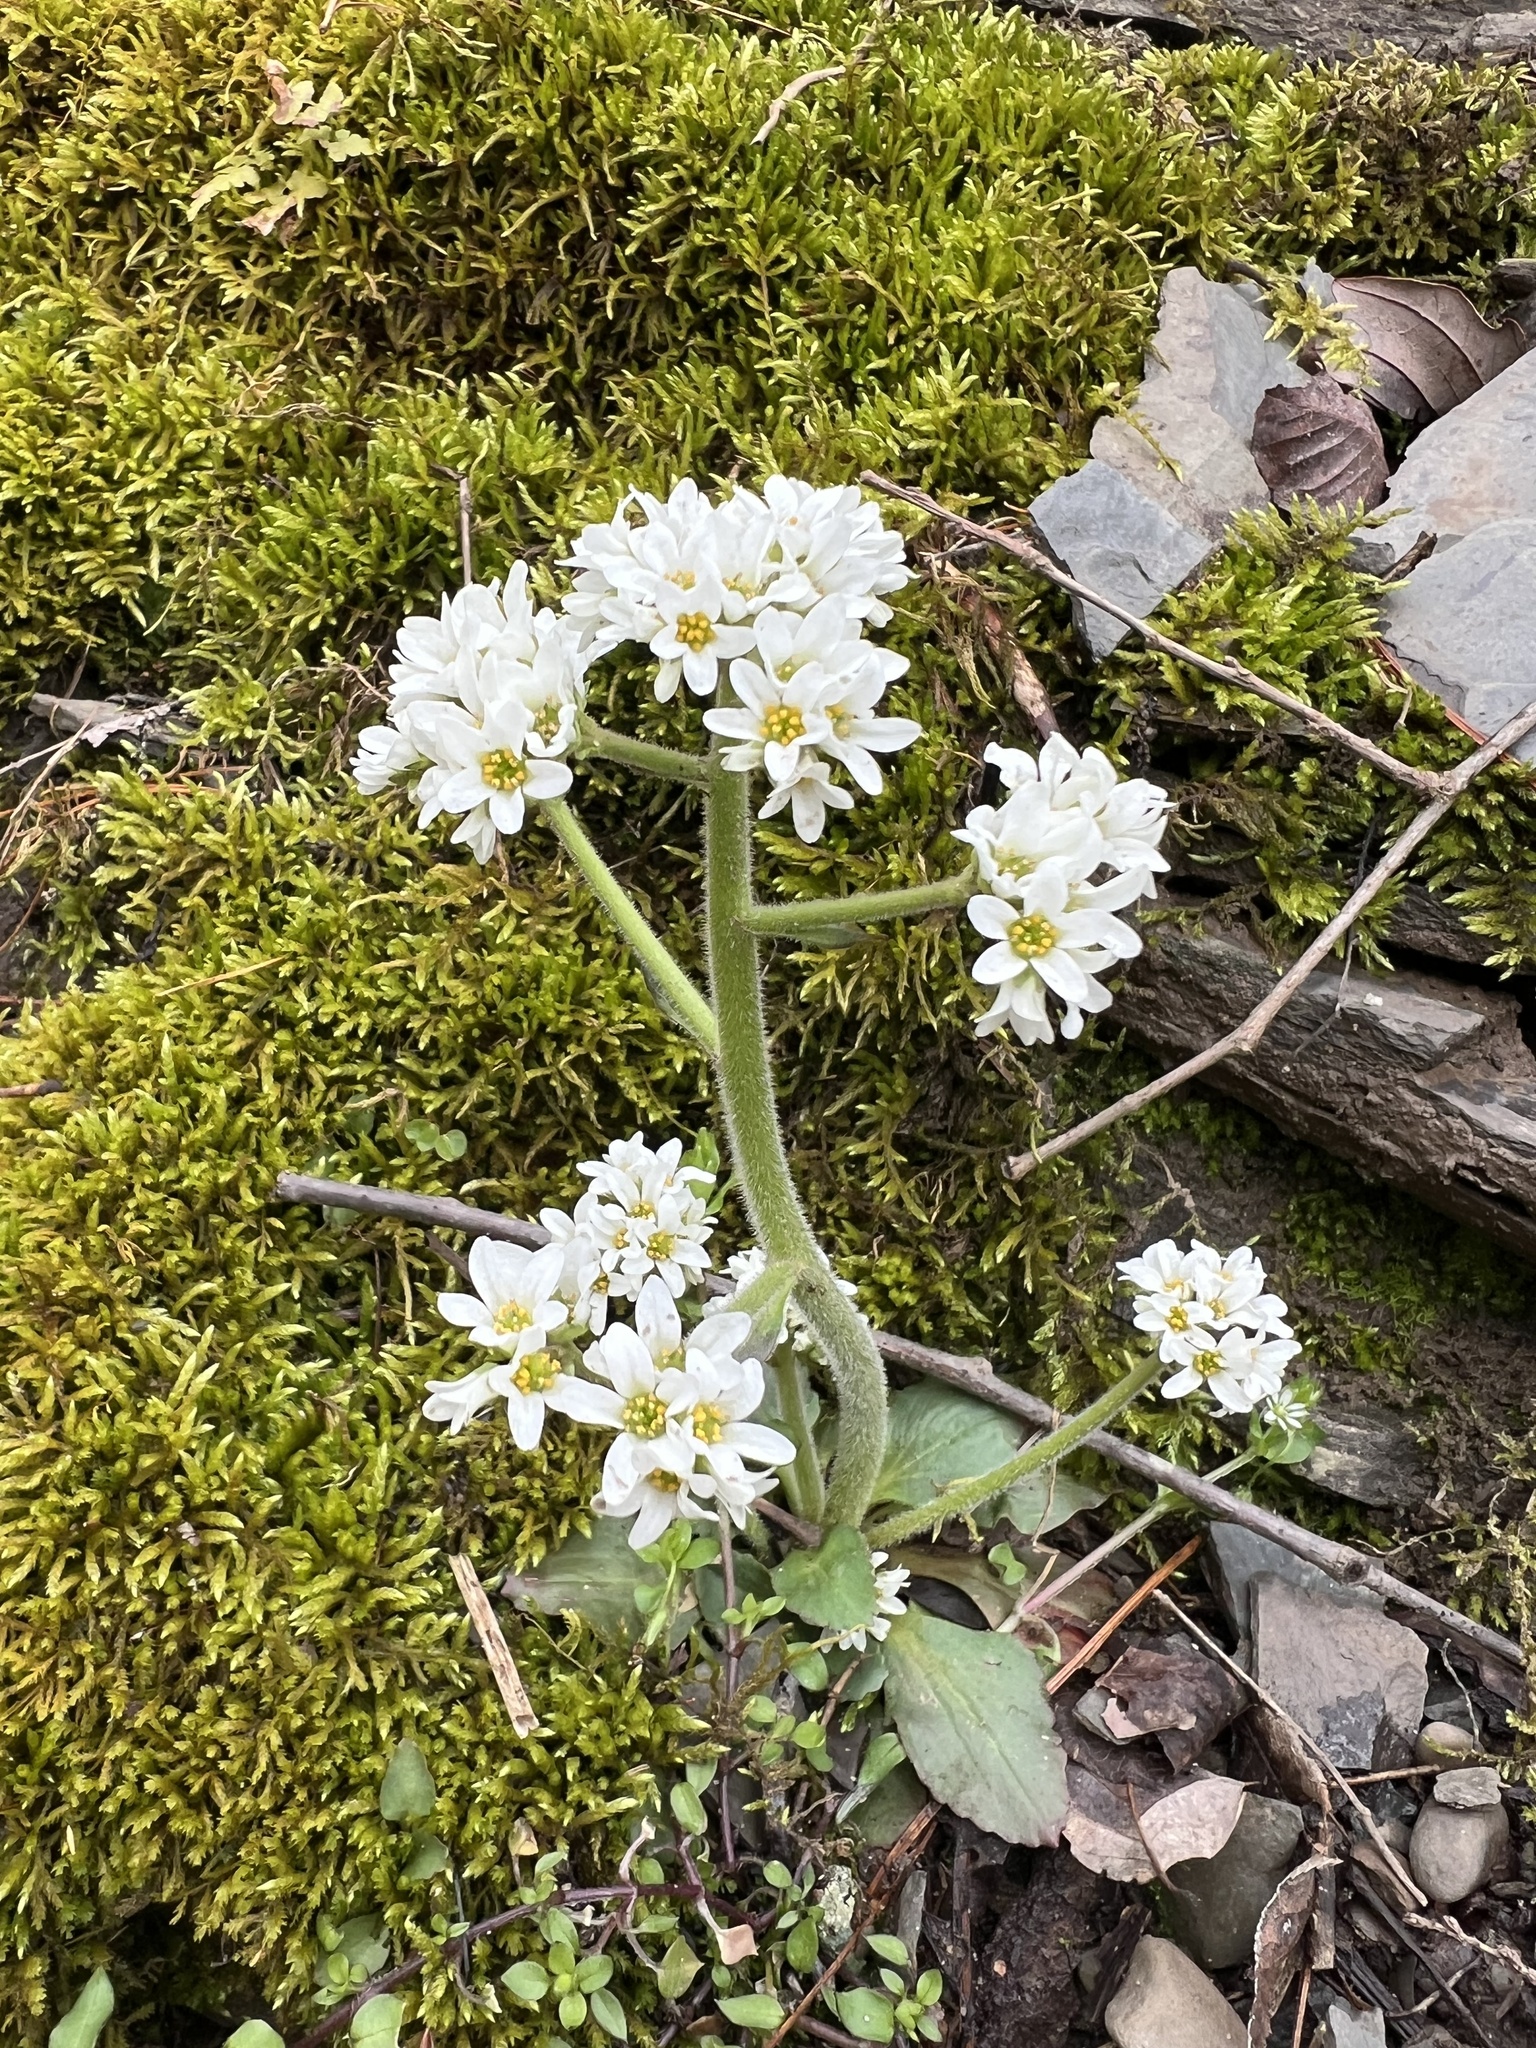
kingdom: Plantae
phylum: Tracheophyta
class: Magnoliopsida
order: Saxifragales
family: Saxifragaceae
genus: Micranthes
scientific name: Micranthes virginiensis
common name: Early saxifrage
